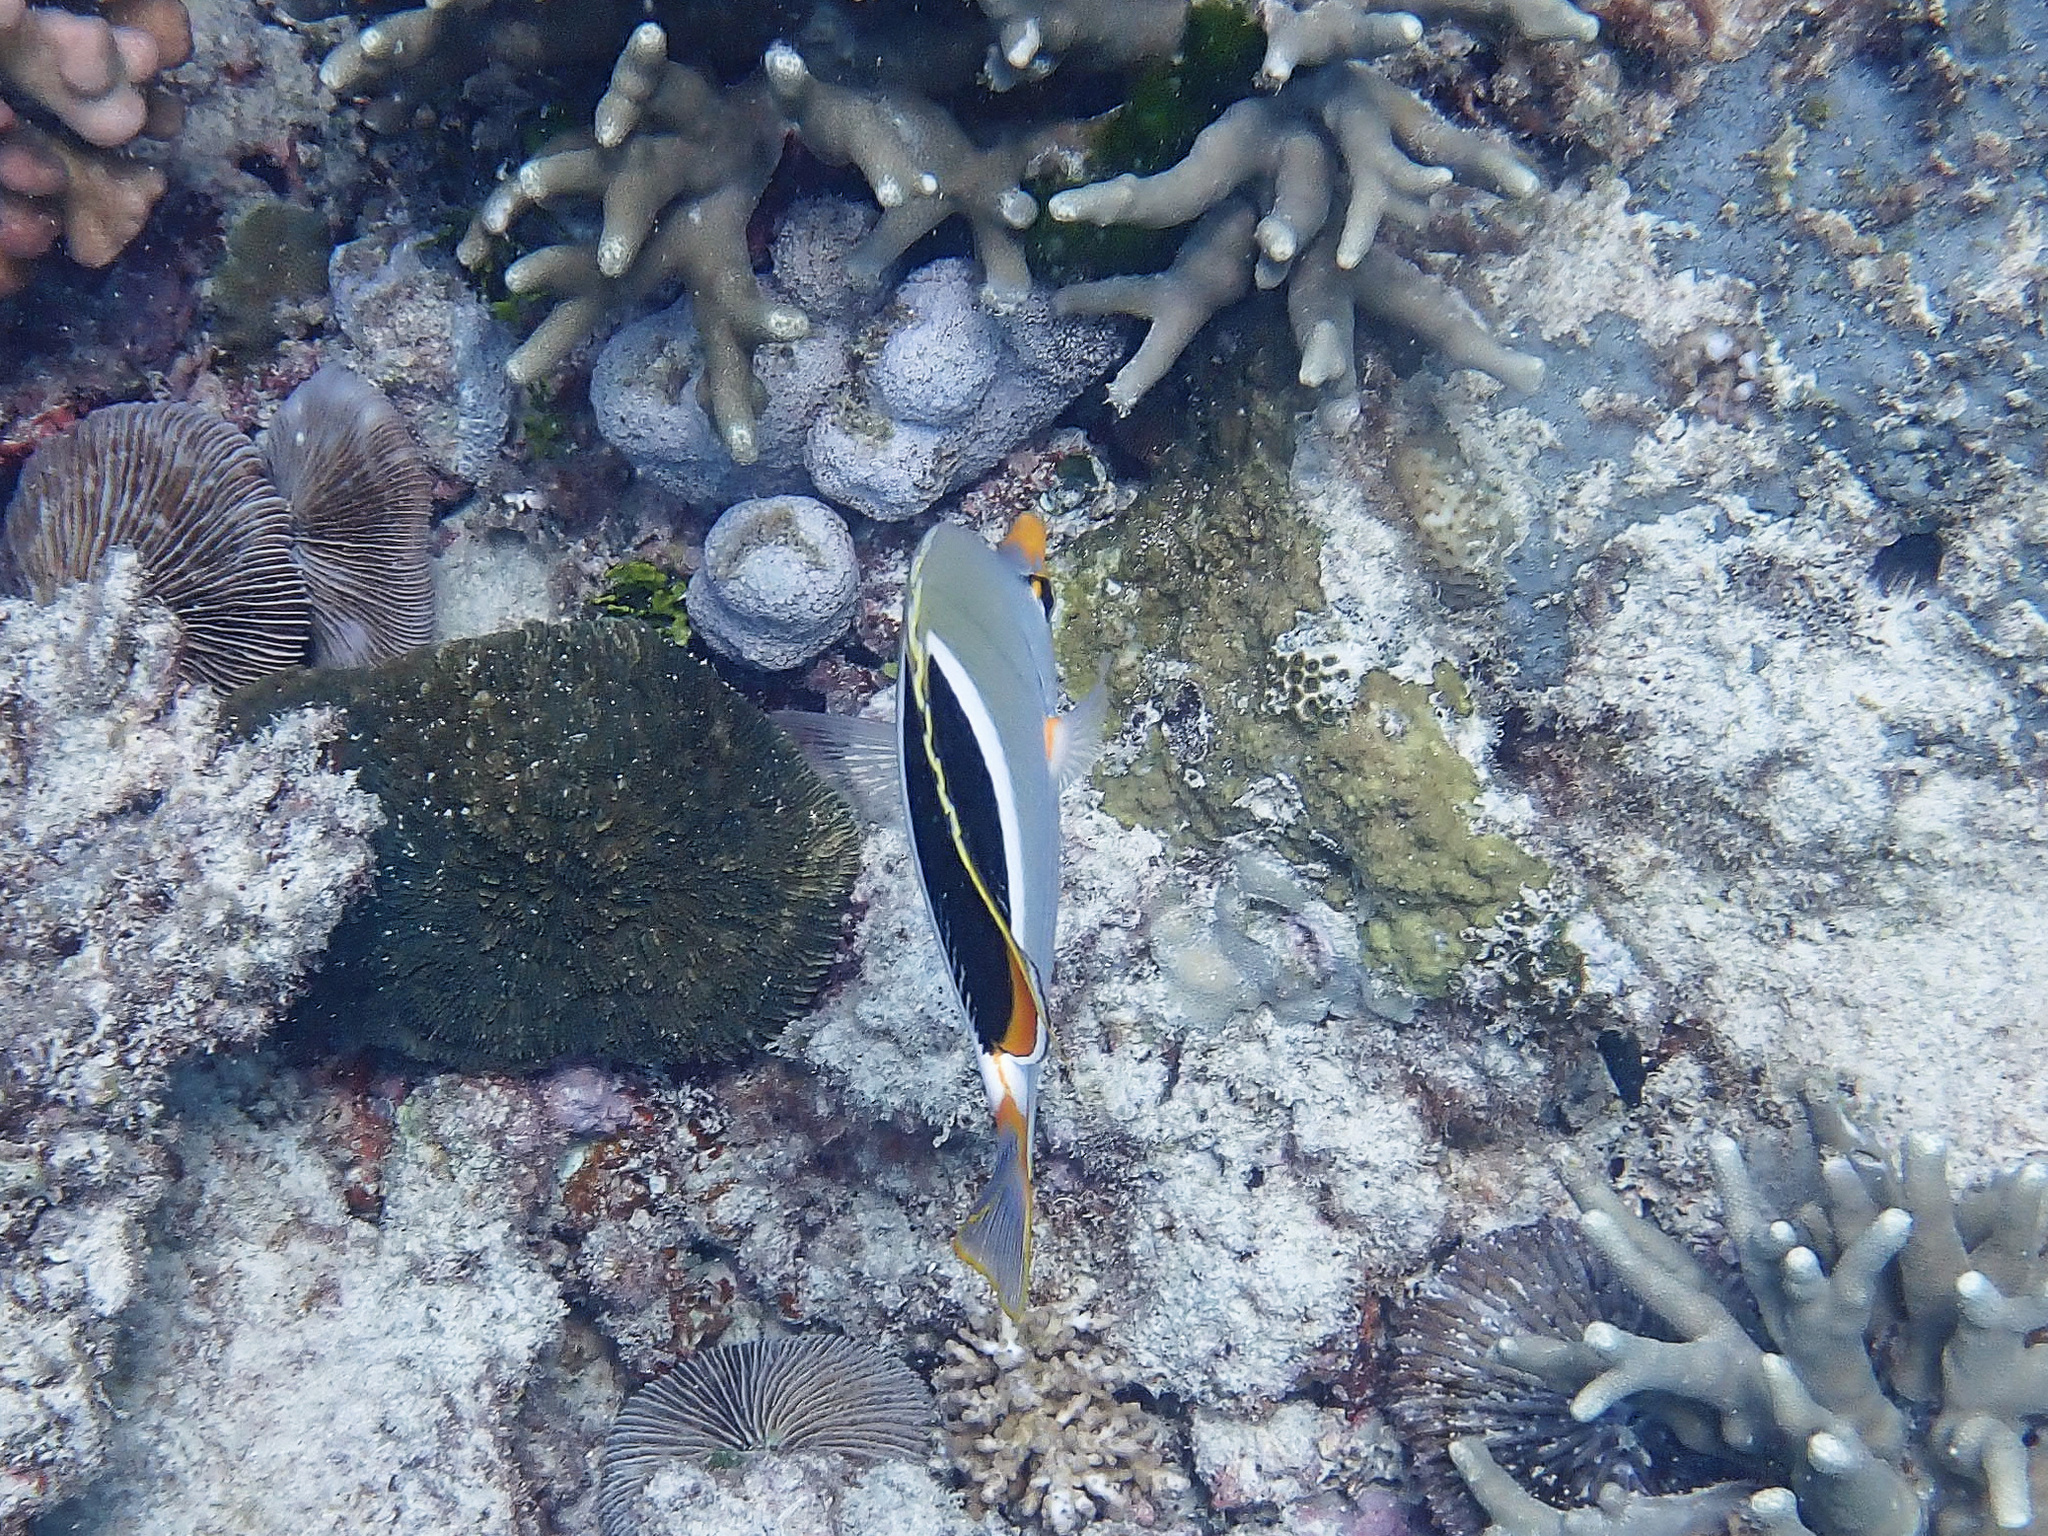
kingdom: Animalia
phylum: Chordata
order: Perciformes
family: Chaetodontidae
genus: Chaetodon
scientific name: Chaetodon ephippium
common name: Saddled butterflyfish
